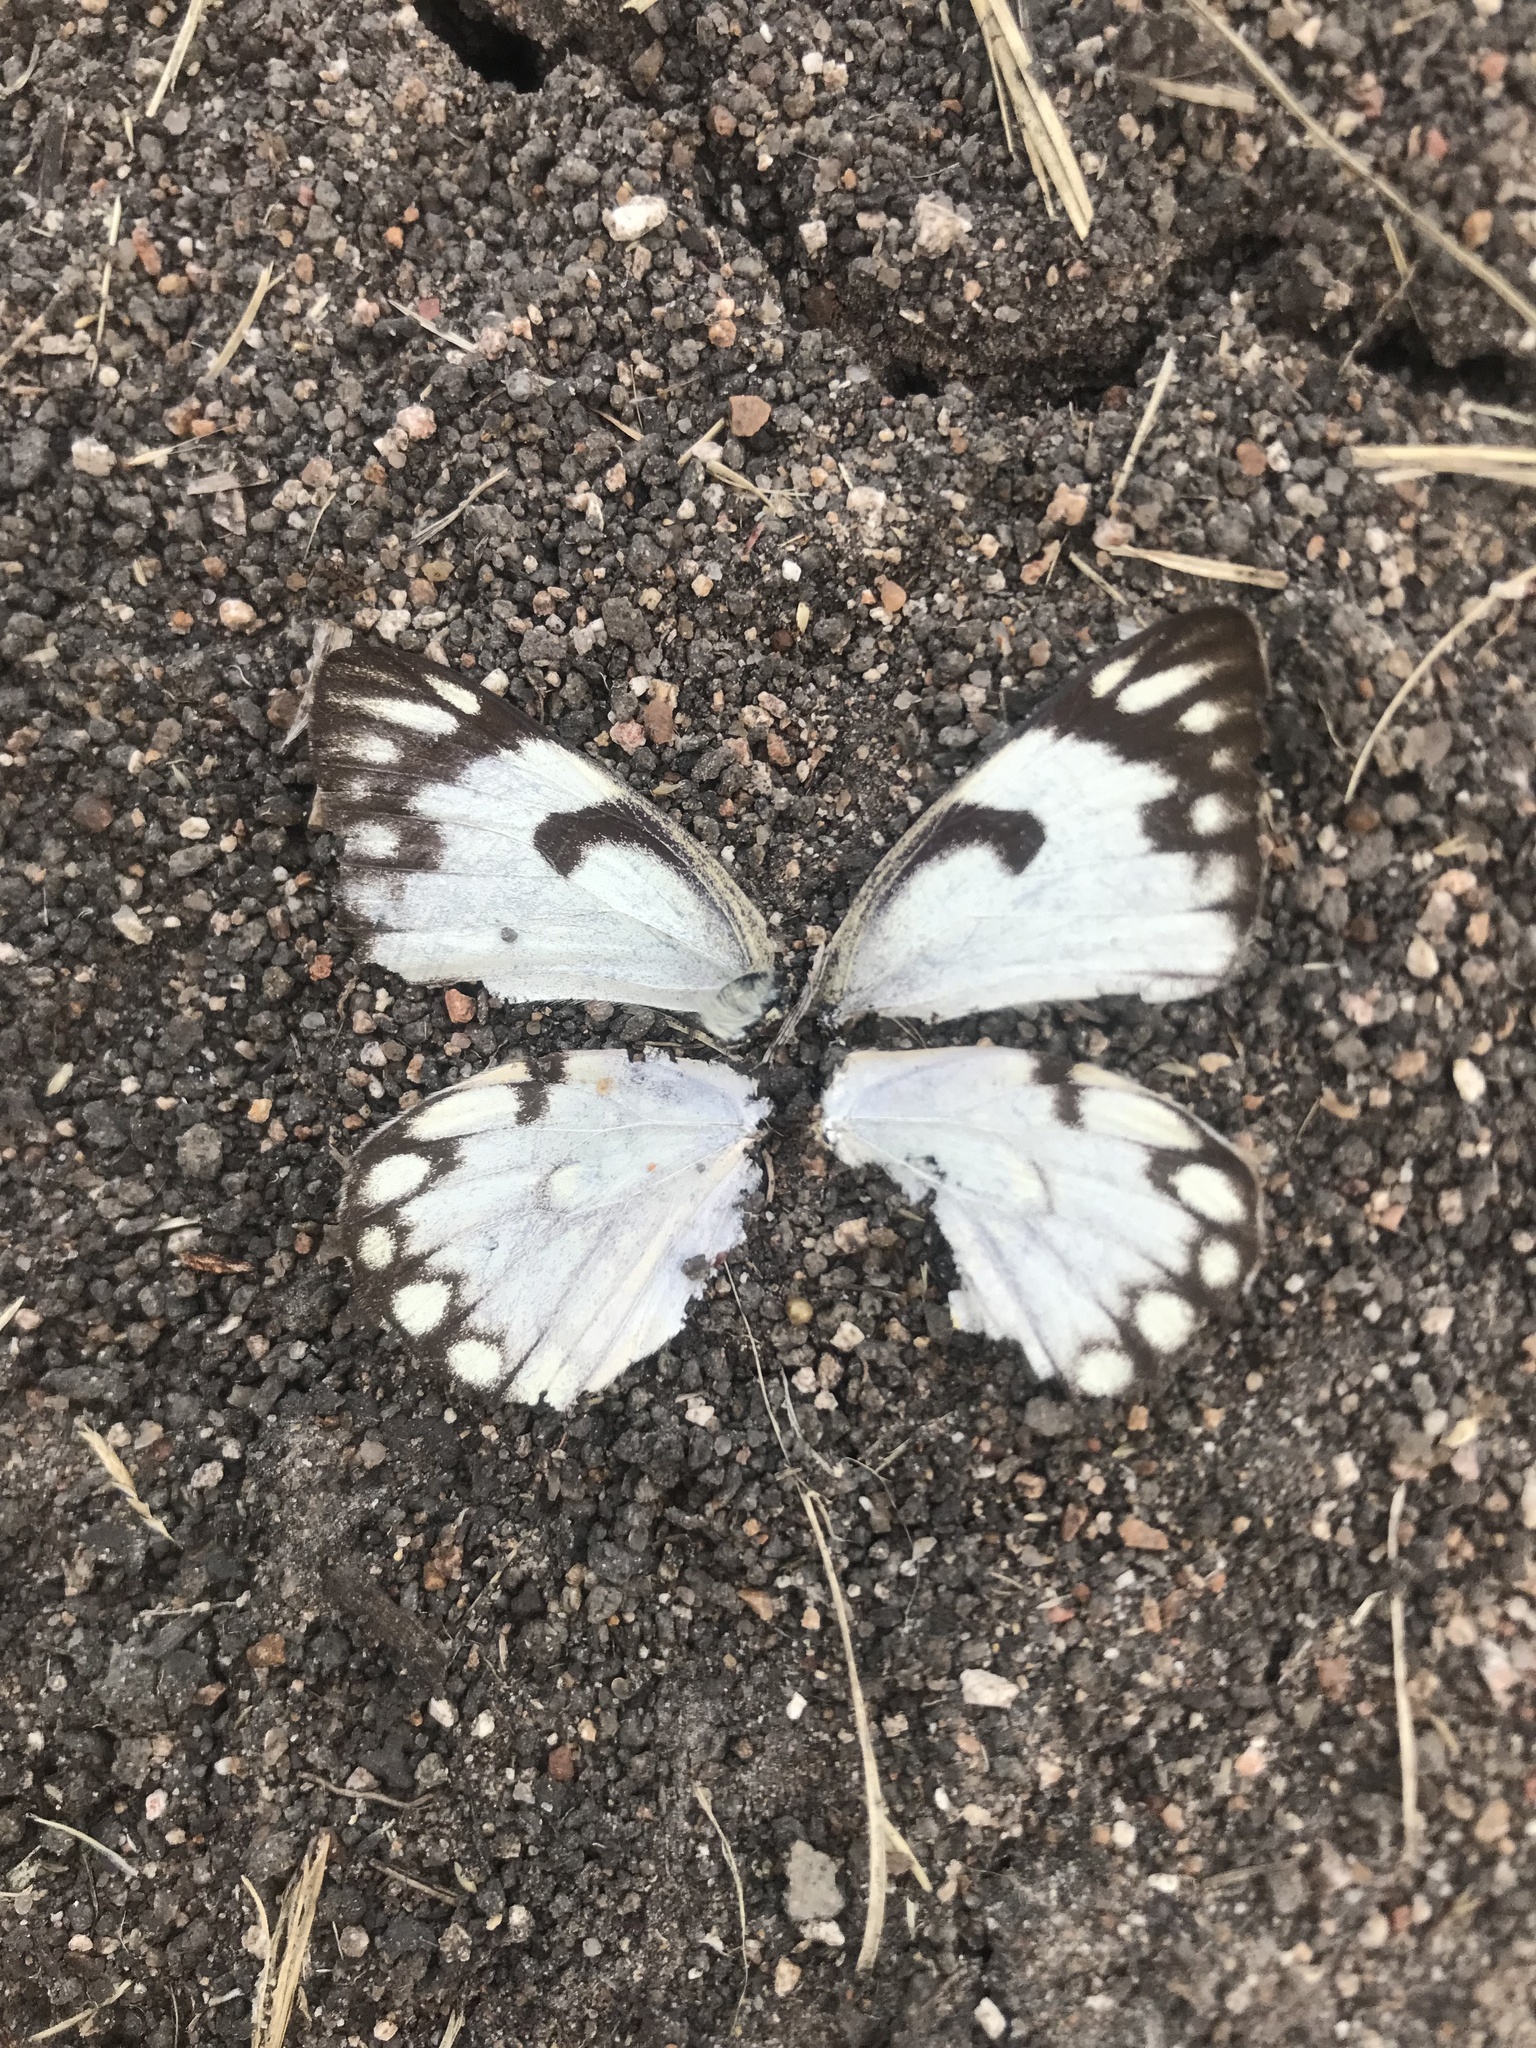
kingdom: Animalia
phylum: Arthropoda
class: Insecta
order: Lepidoptera
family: Pieridae
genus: Belenois
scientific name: Belenois aurota
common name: Brown-veined white
